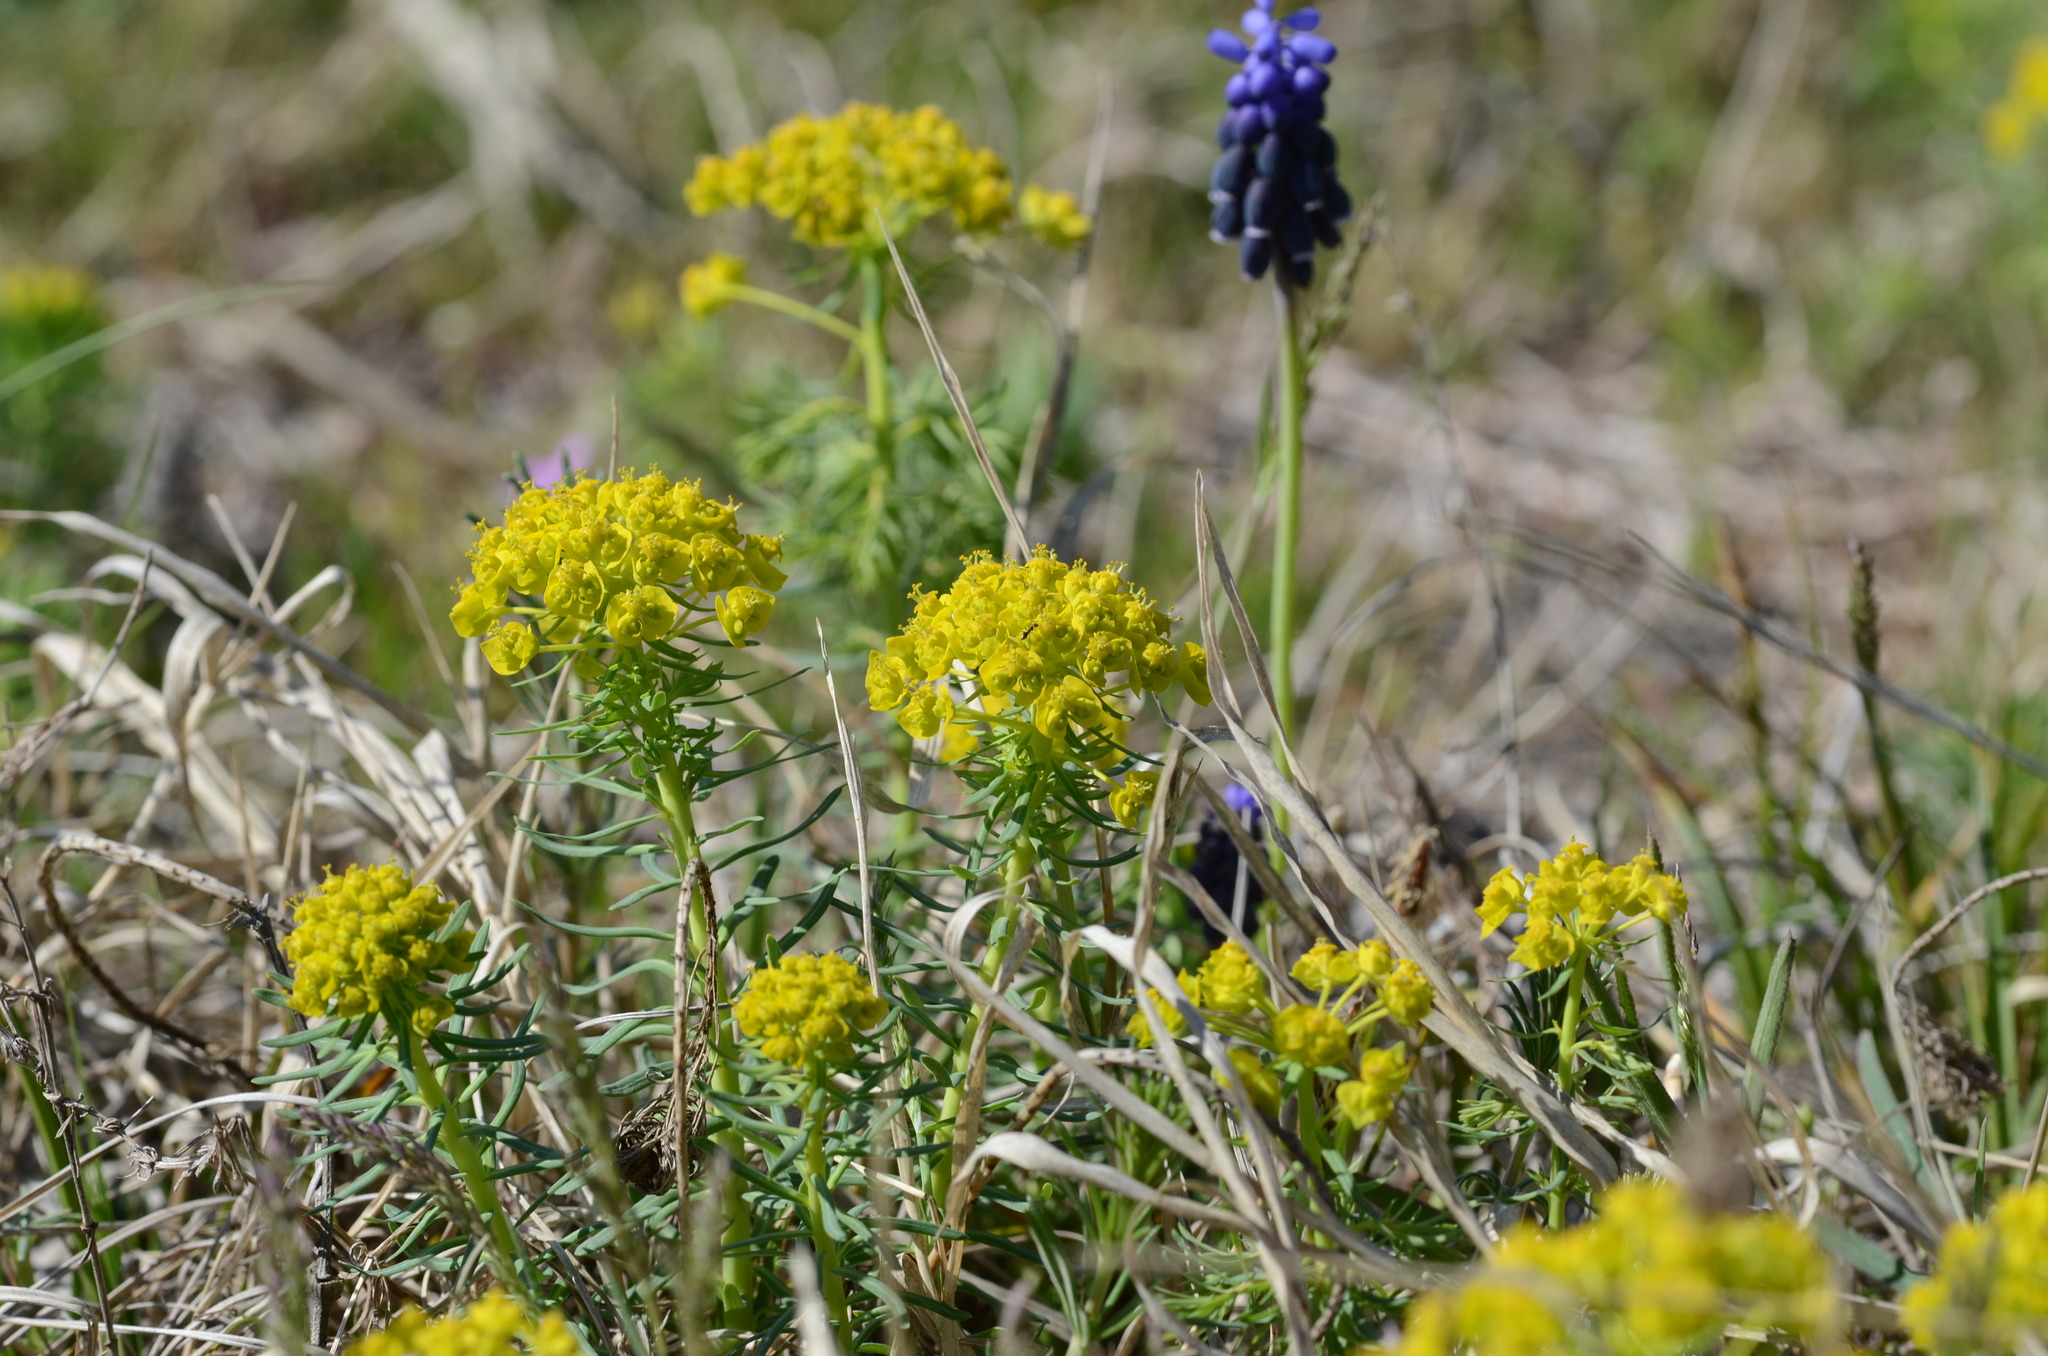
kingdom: Plantae
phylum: Tracheophyta
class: Magnoliopsida
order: Malpighiales
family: Euphorbiaceae
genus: Euphorbia
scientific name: Euphorbia cyparissias
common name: Cypress spurge
